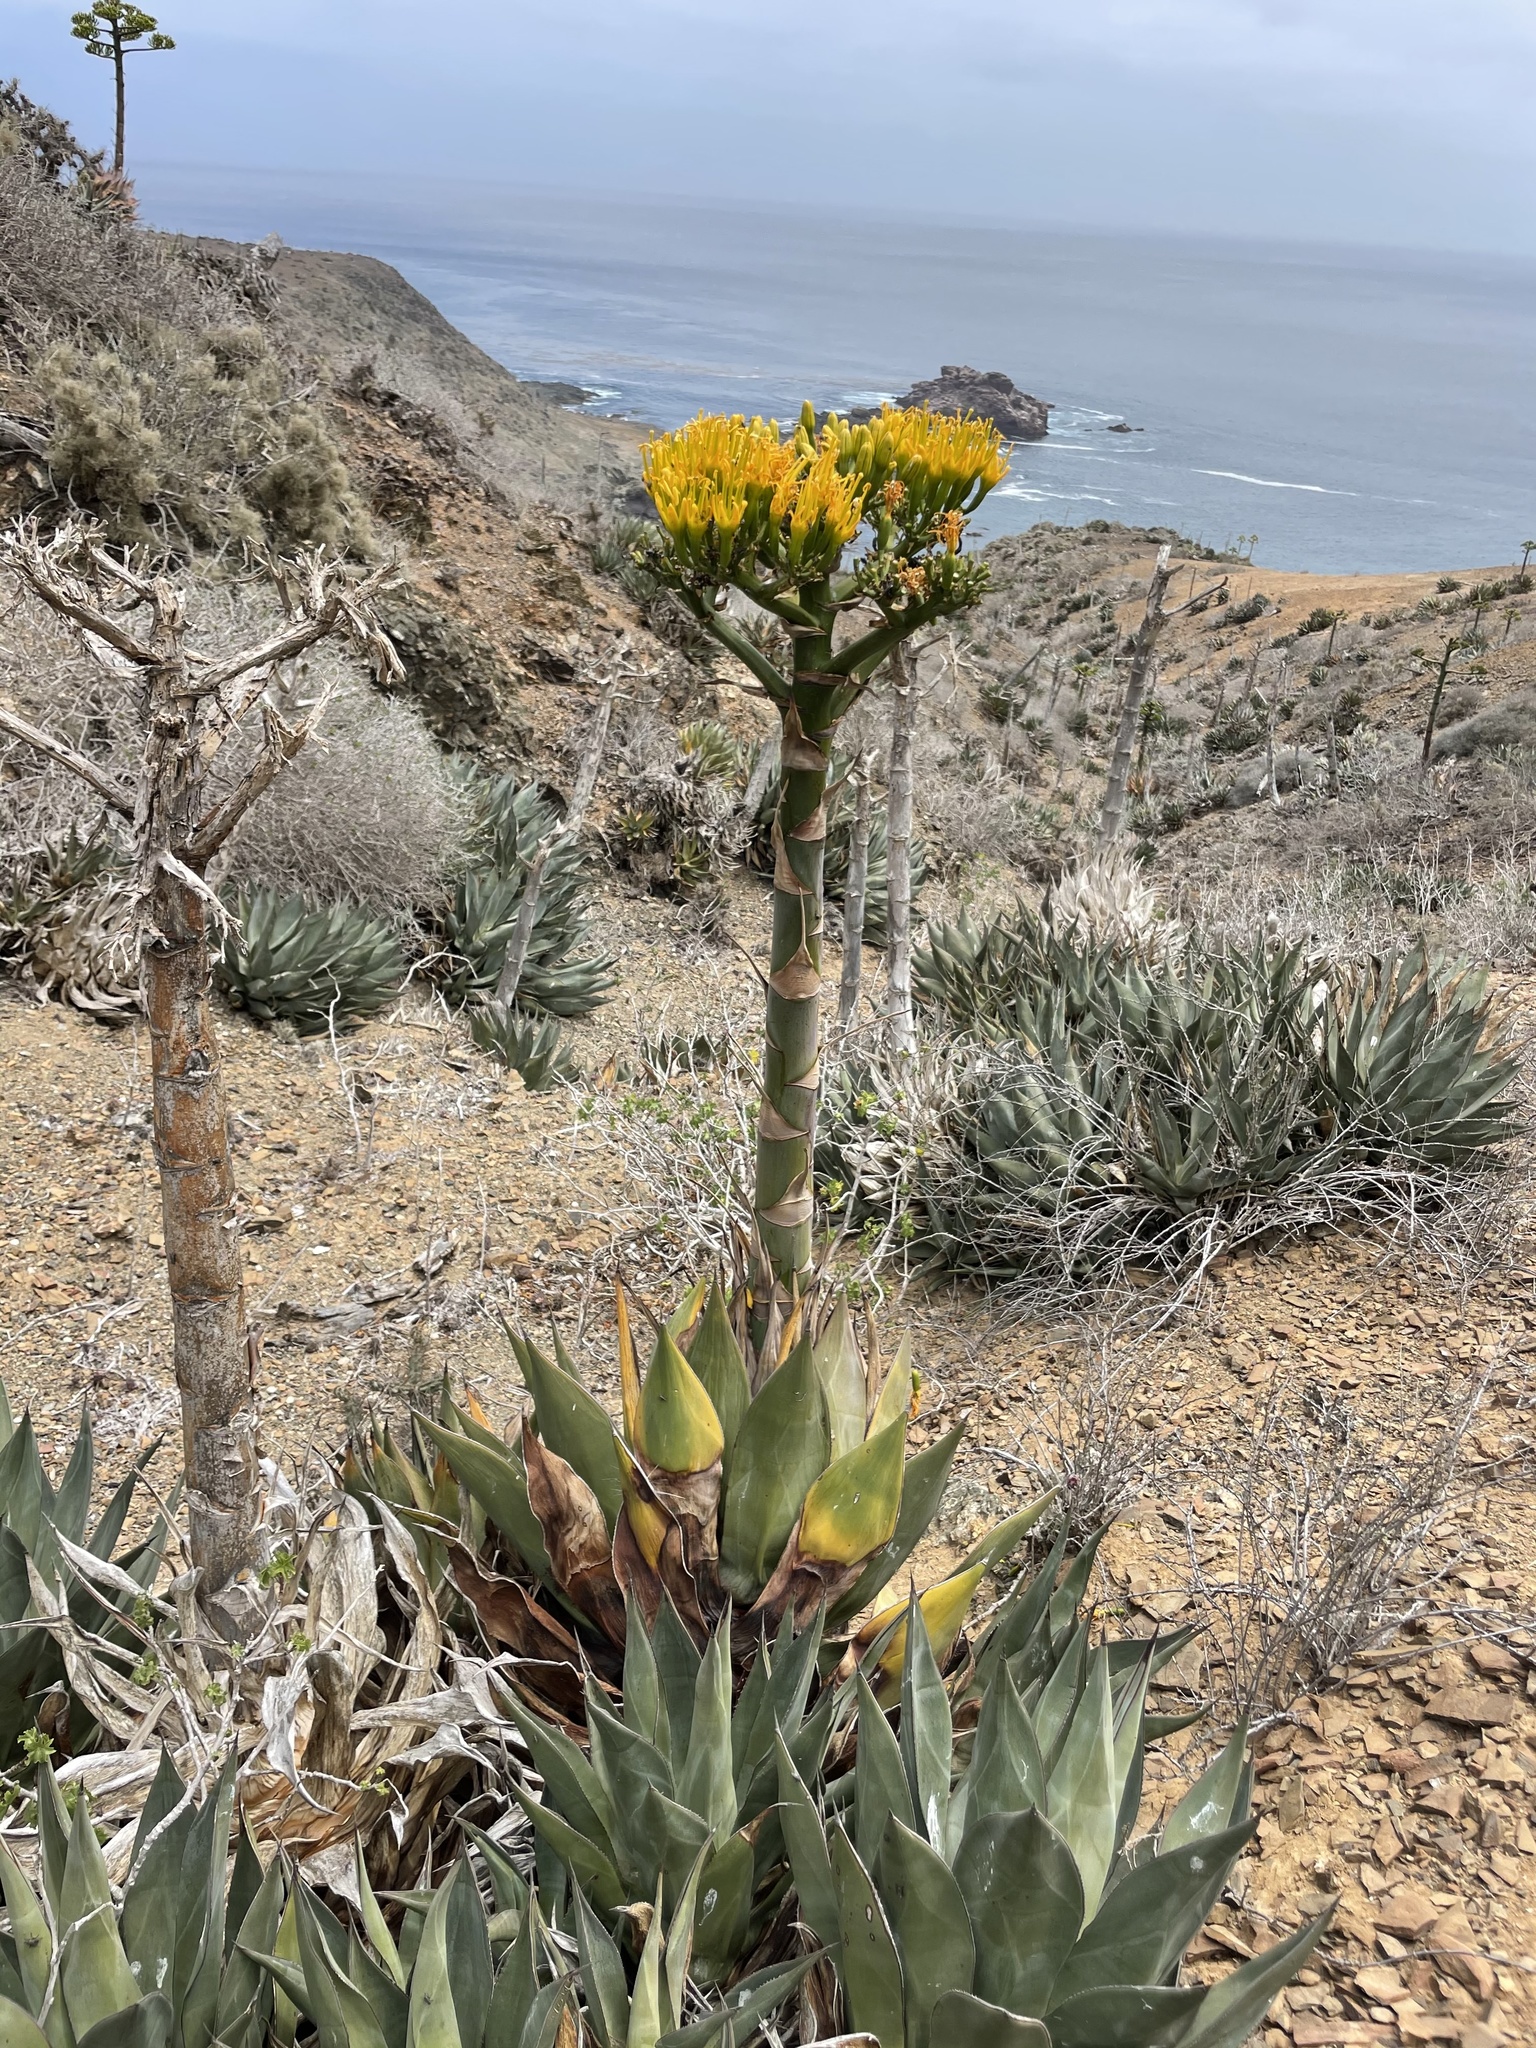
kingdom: Plantae
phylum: Tracheophyta
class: Liliopsida
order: Asparagales
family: Asparagaceae
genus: Agave
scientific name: Agave sebastiana
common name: Cedros agave
